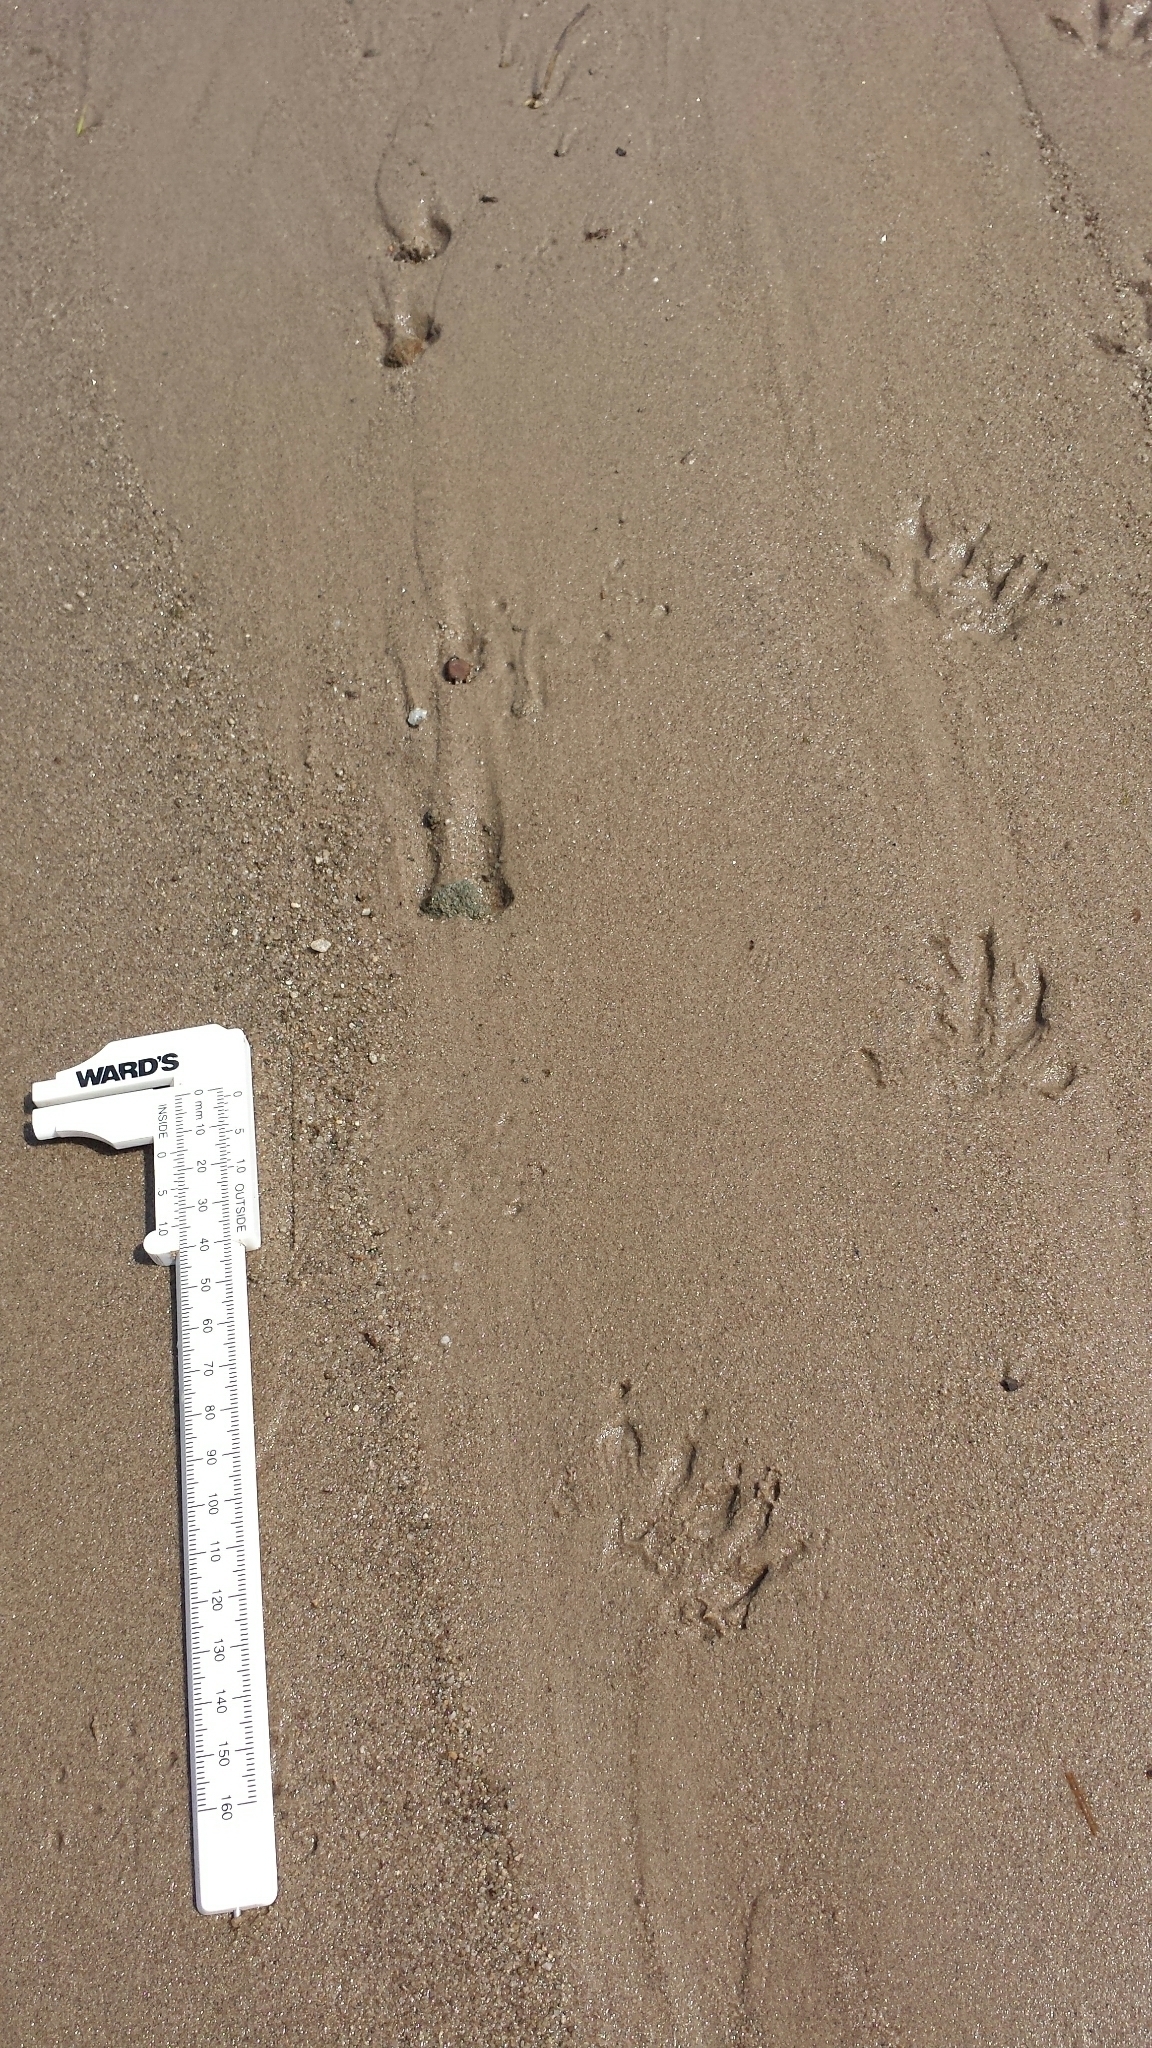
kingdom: Animalia
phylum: Chordata
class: Mammalia
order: Carnivora
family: Procyonidae
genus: Procyon
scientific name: Procyon lotor
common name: Raccoon
